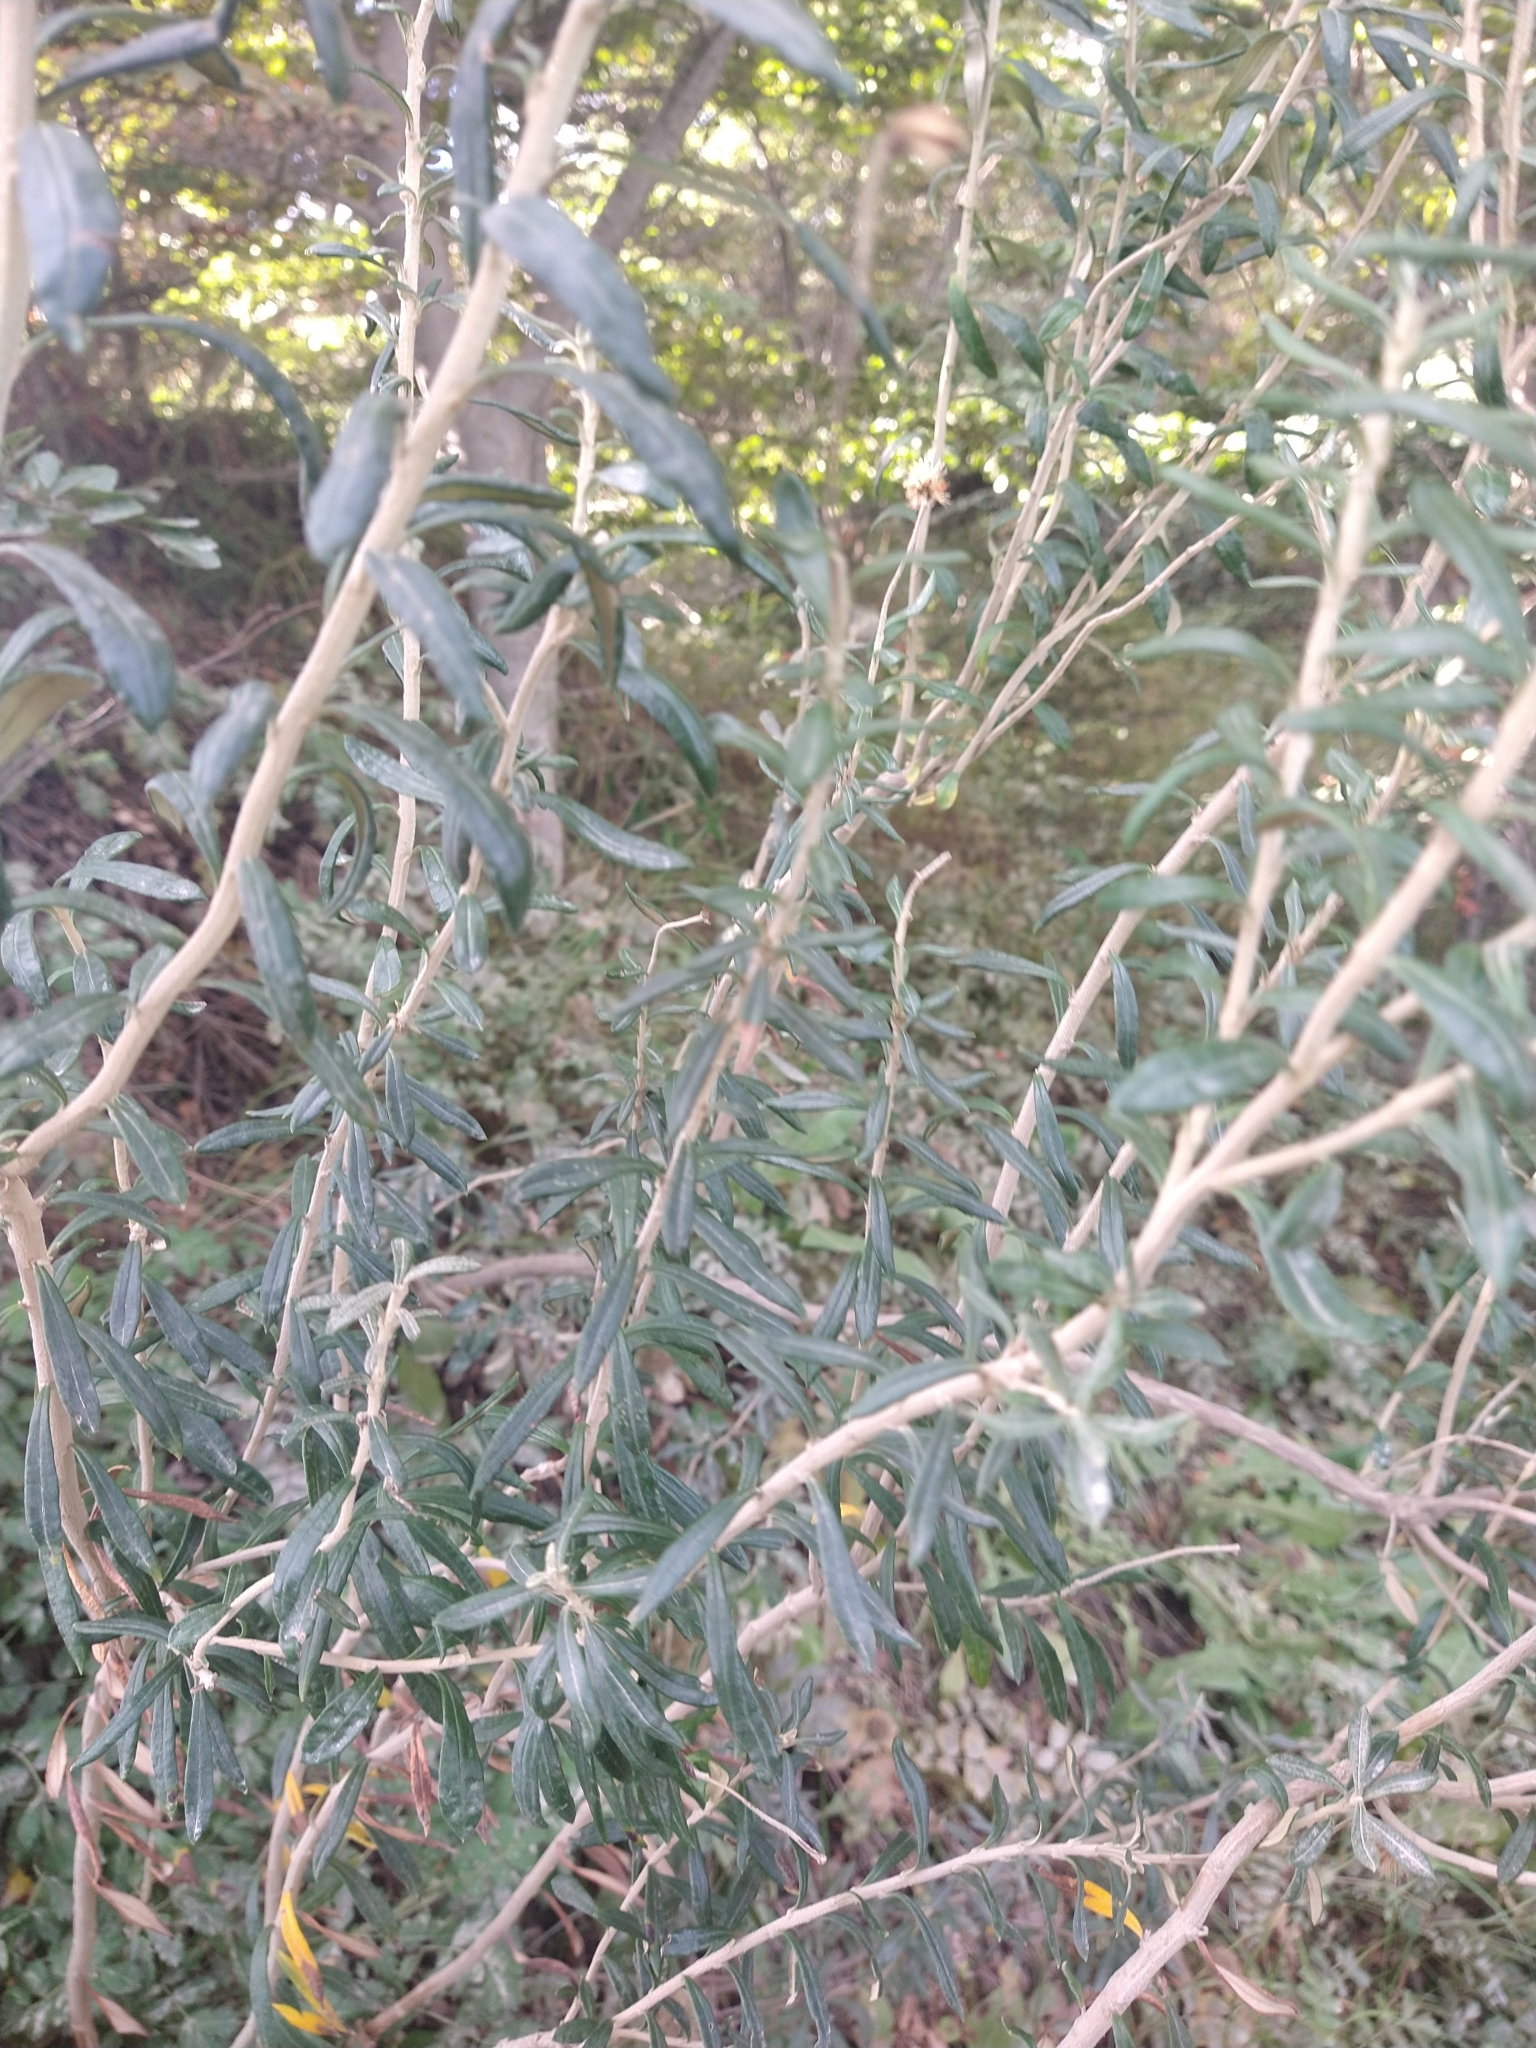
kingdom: Plantae
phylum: Tracheophyta
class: Magnoliopsida
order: Asterales
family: Asteraceae
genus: Chiliotrichum
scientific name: Chiliotrichum diffusum
